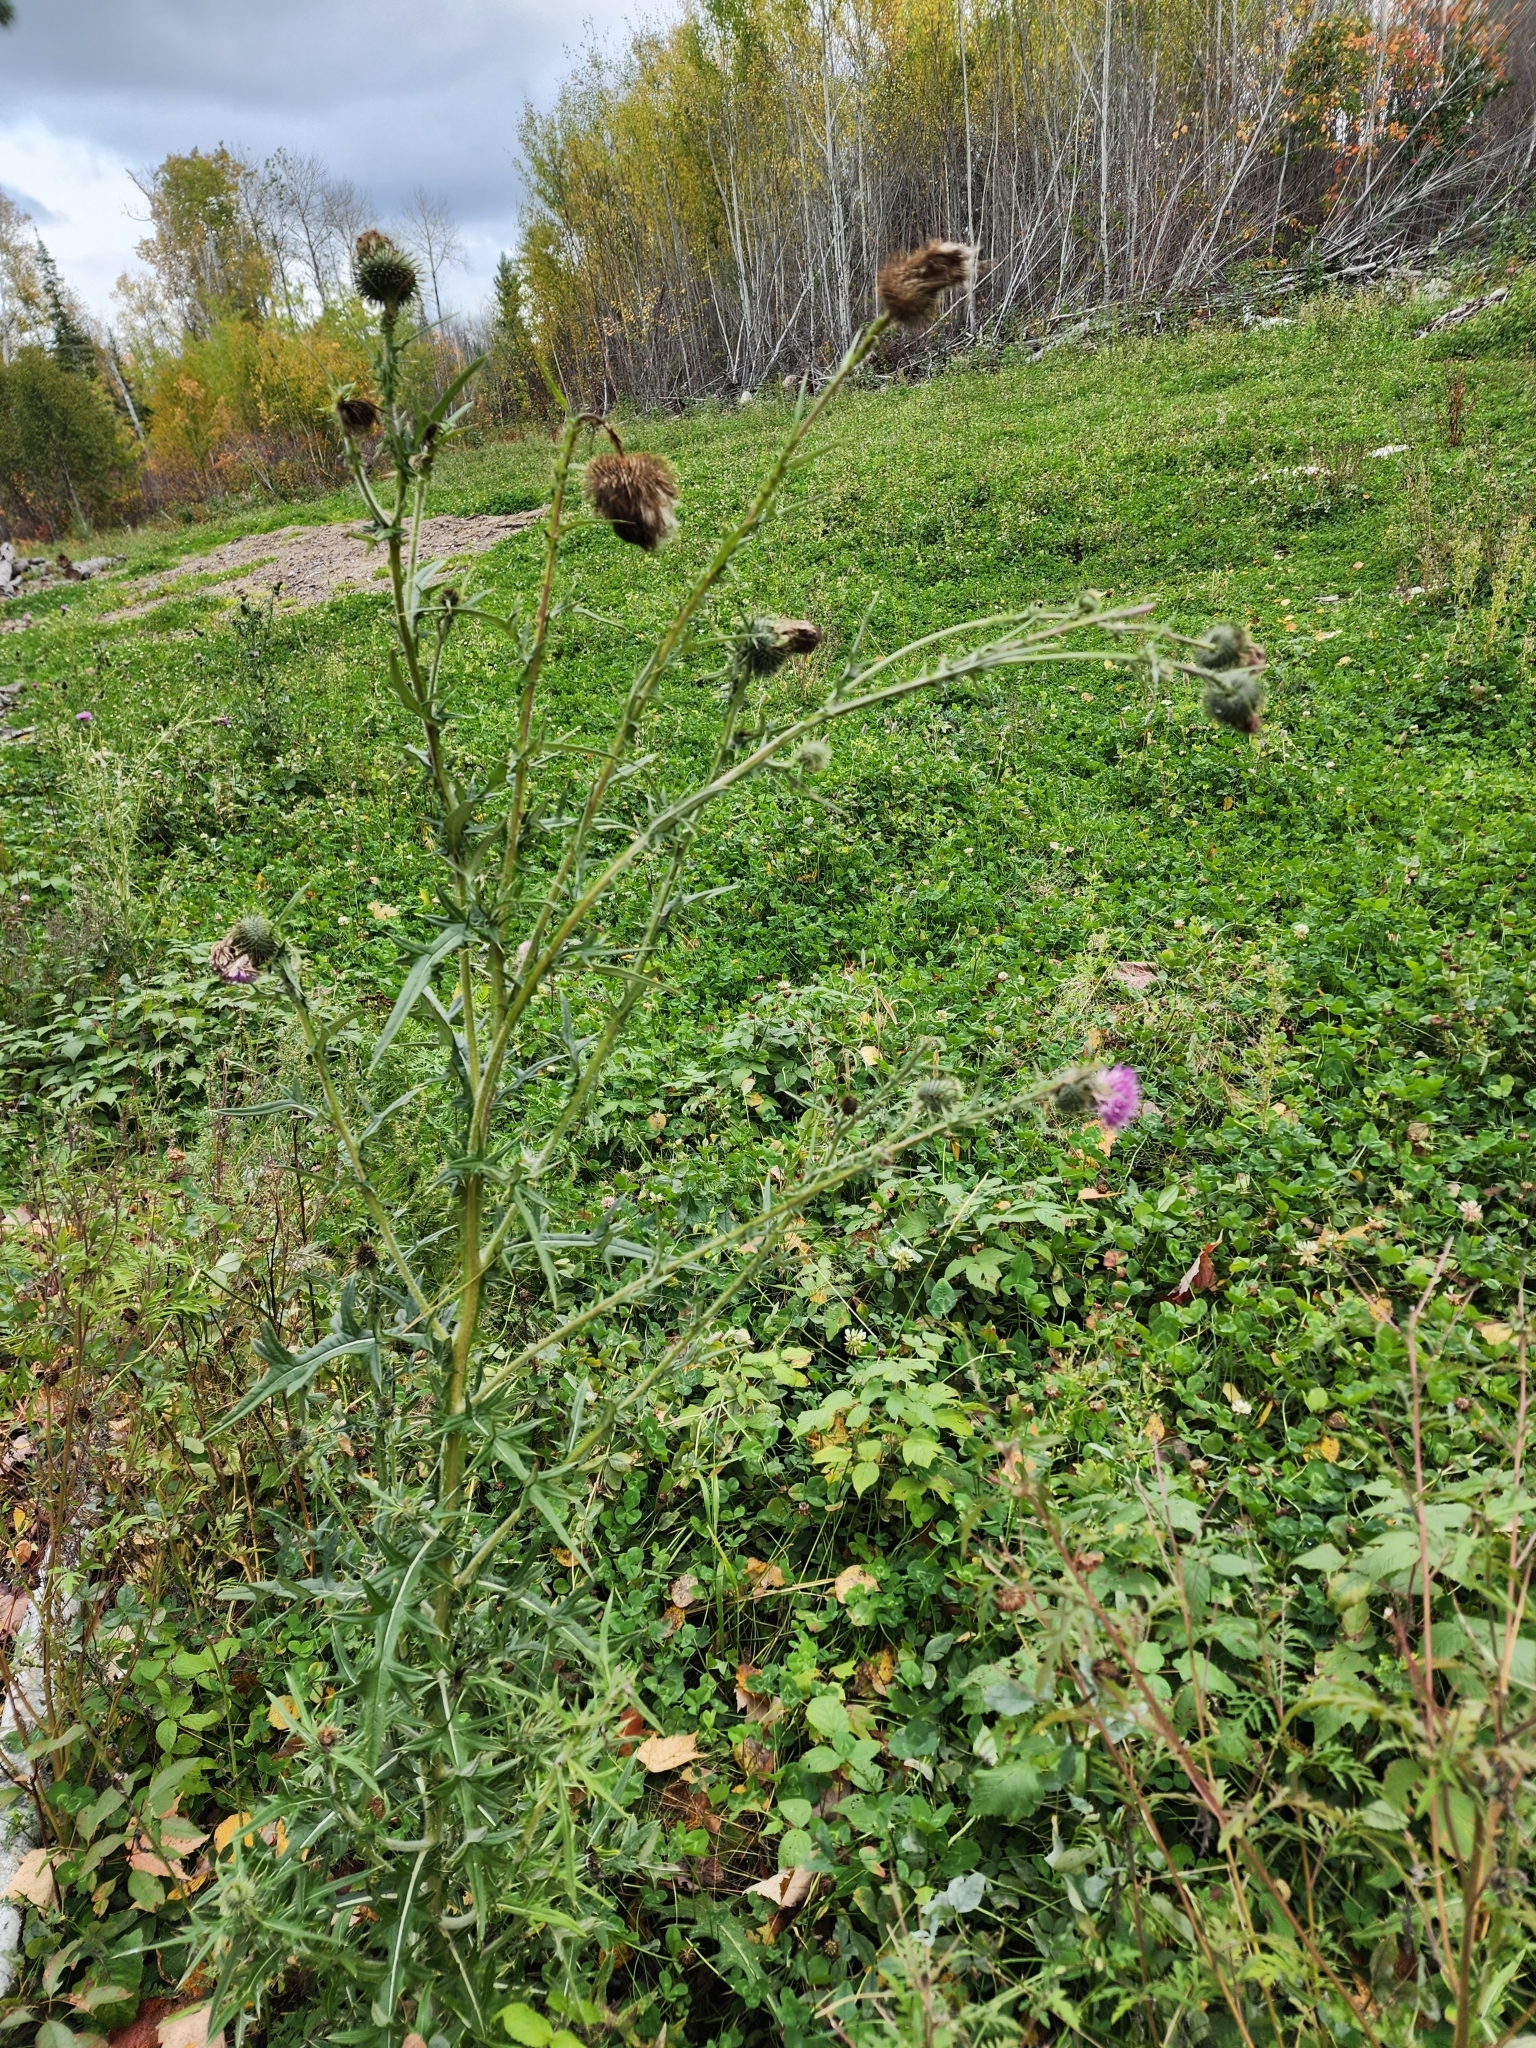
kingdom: Plantae
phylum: Tracheophyta
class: Magnoliopsida
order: Asterales
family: Asteraceae
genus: Cirsium
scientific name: Cirsium vulgare
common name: Bull thistle
